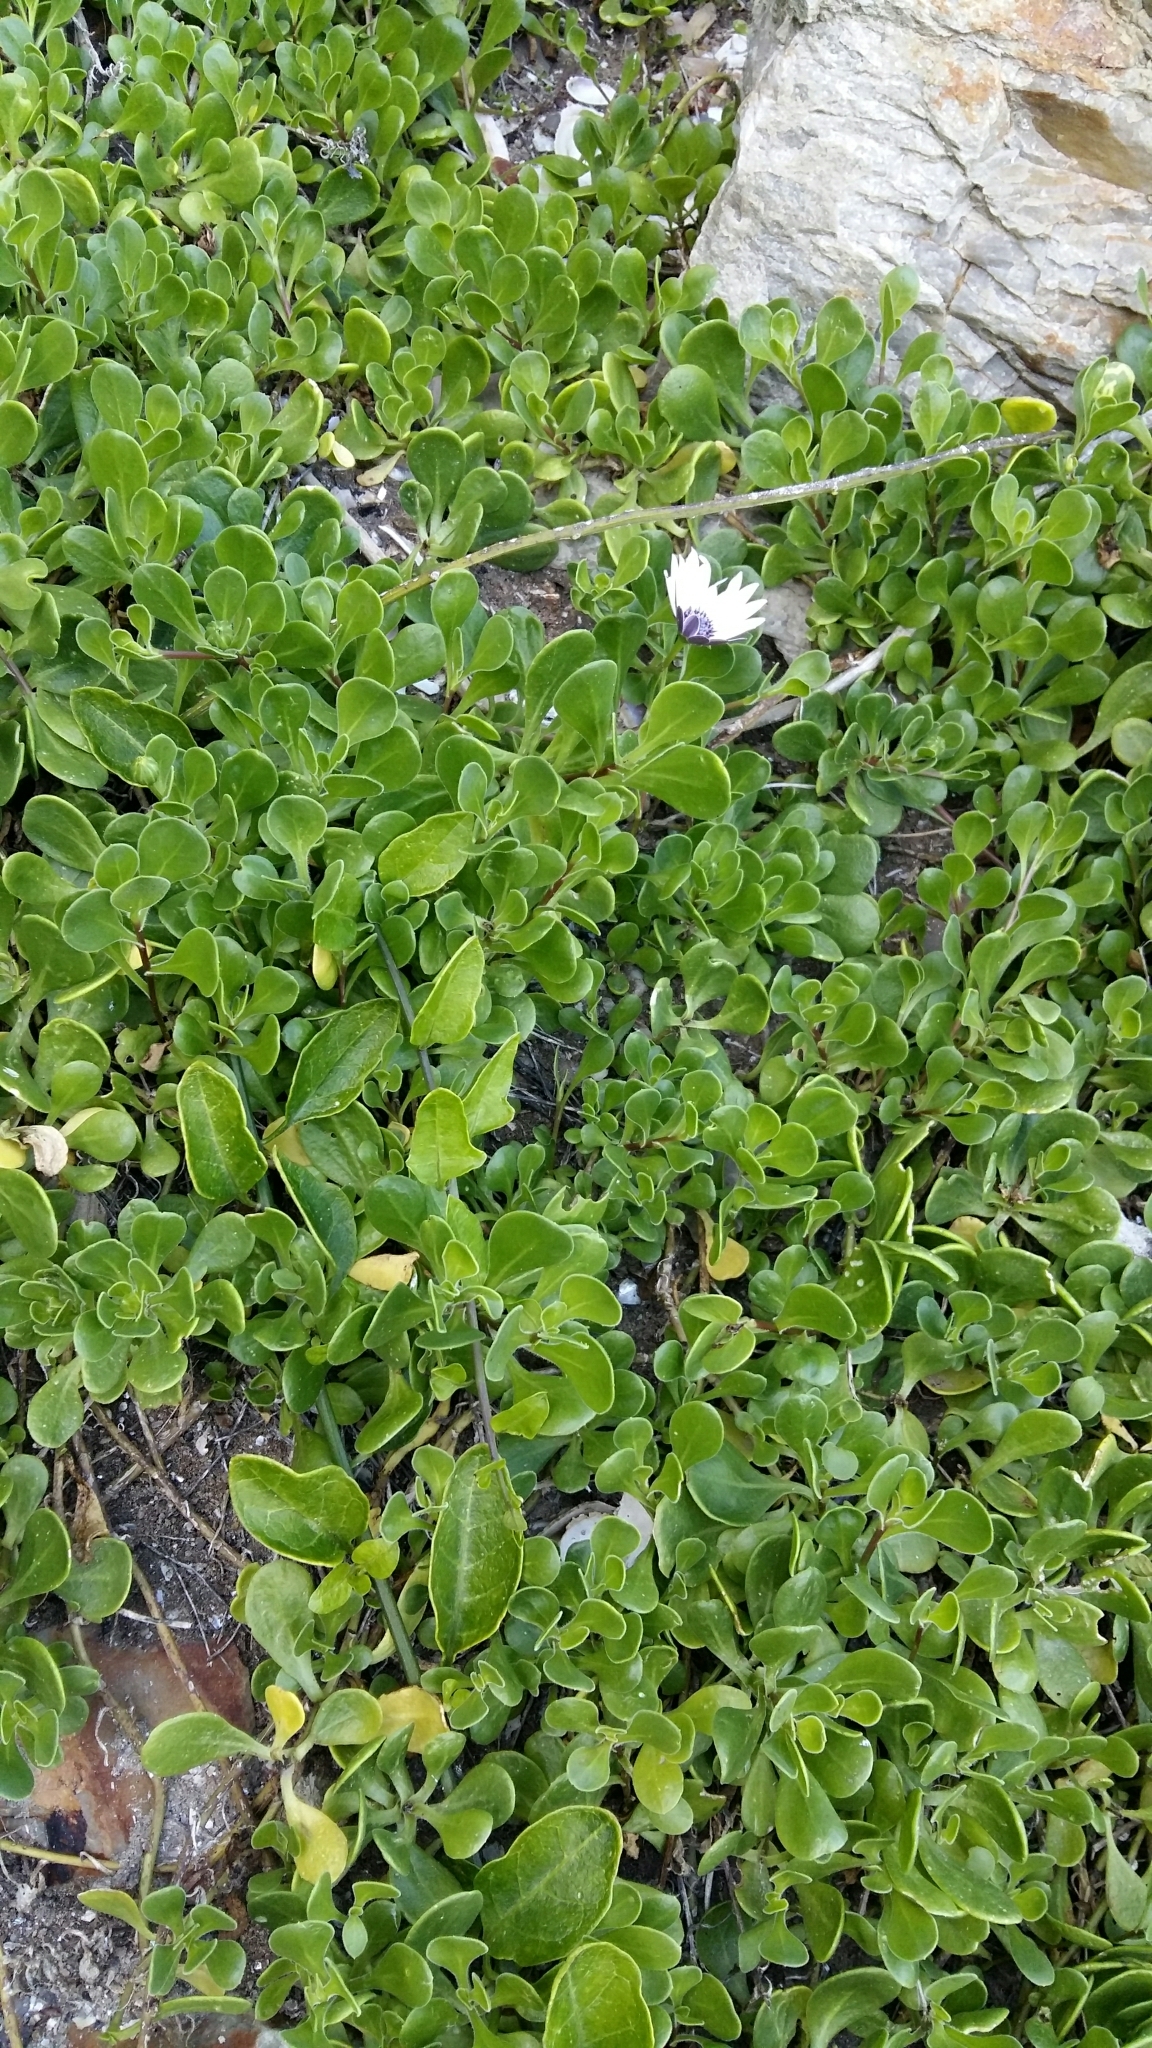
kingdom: Plantae
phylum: Tracheophyta
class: Magnoliopsida
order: Asterales
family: Asteraceae
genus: Dimorphotheca
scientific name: Dimorphotheca fruticosa
